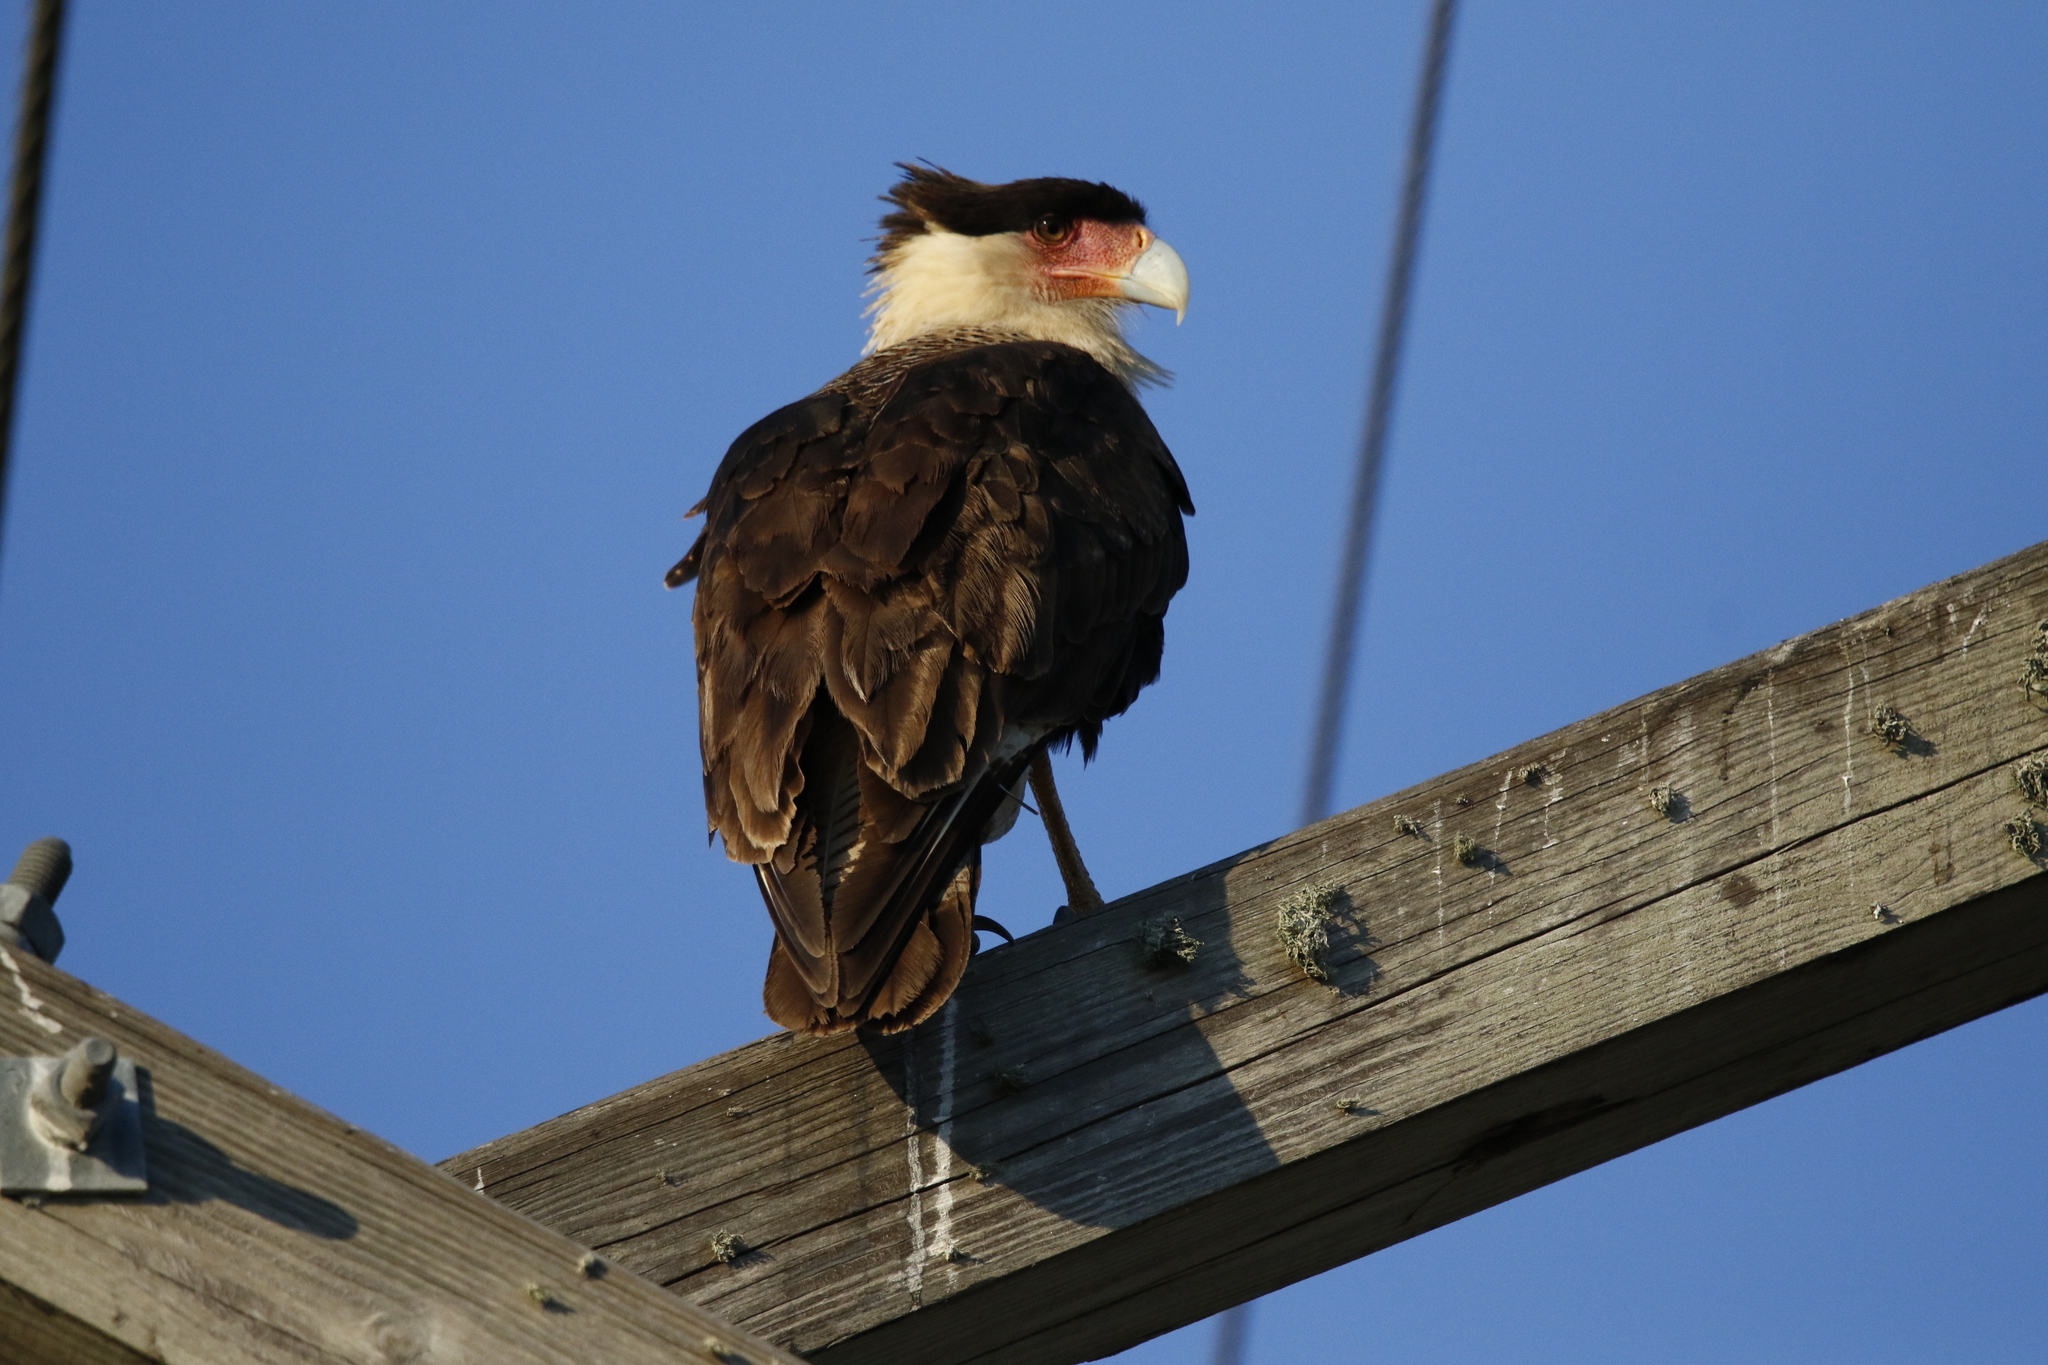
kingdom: Animalia
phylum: Chordata
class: Aves
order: Falconiformes
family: Falconidae
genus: Caracara
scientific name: Caracara plancus
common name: Southern caracara
